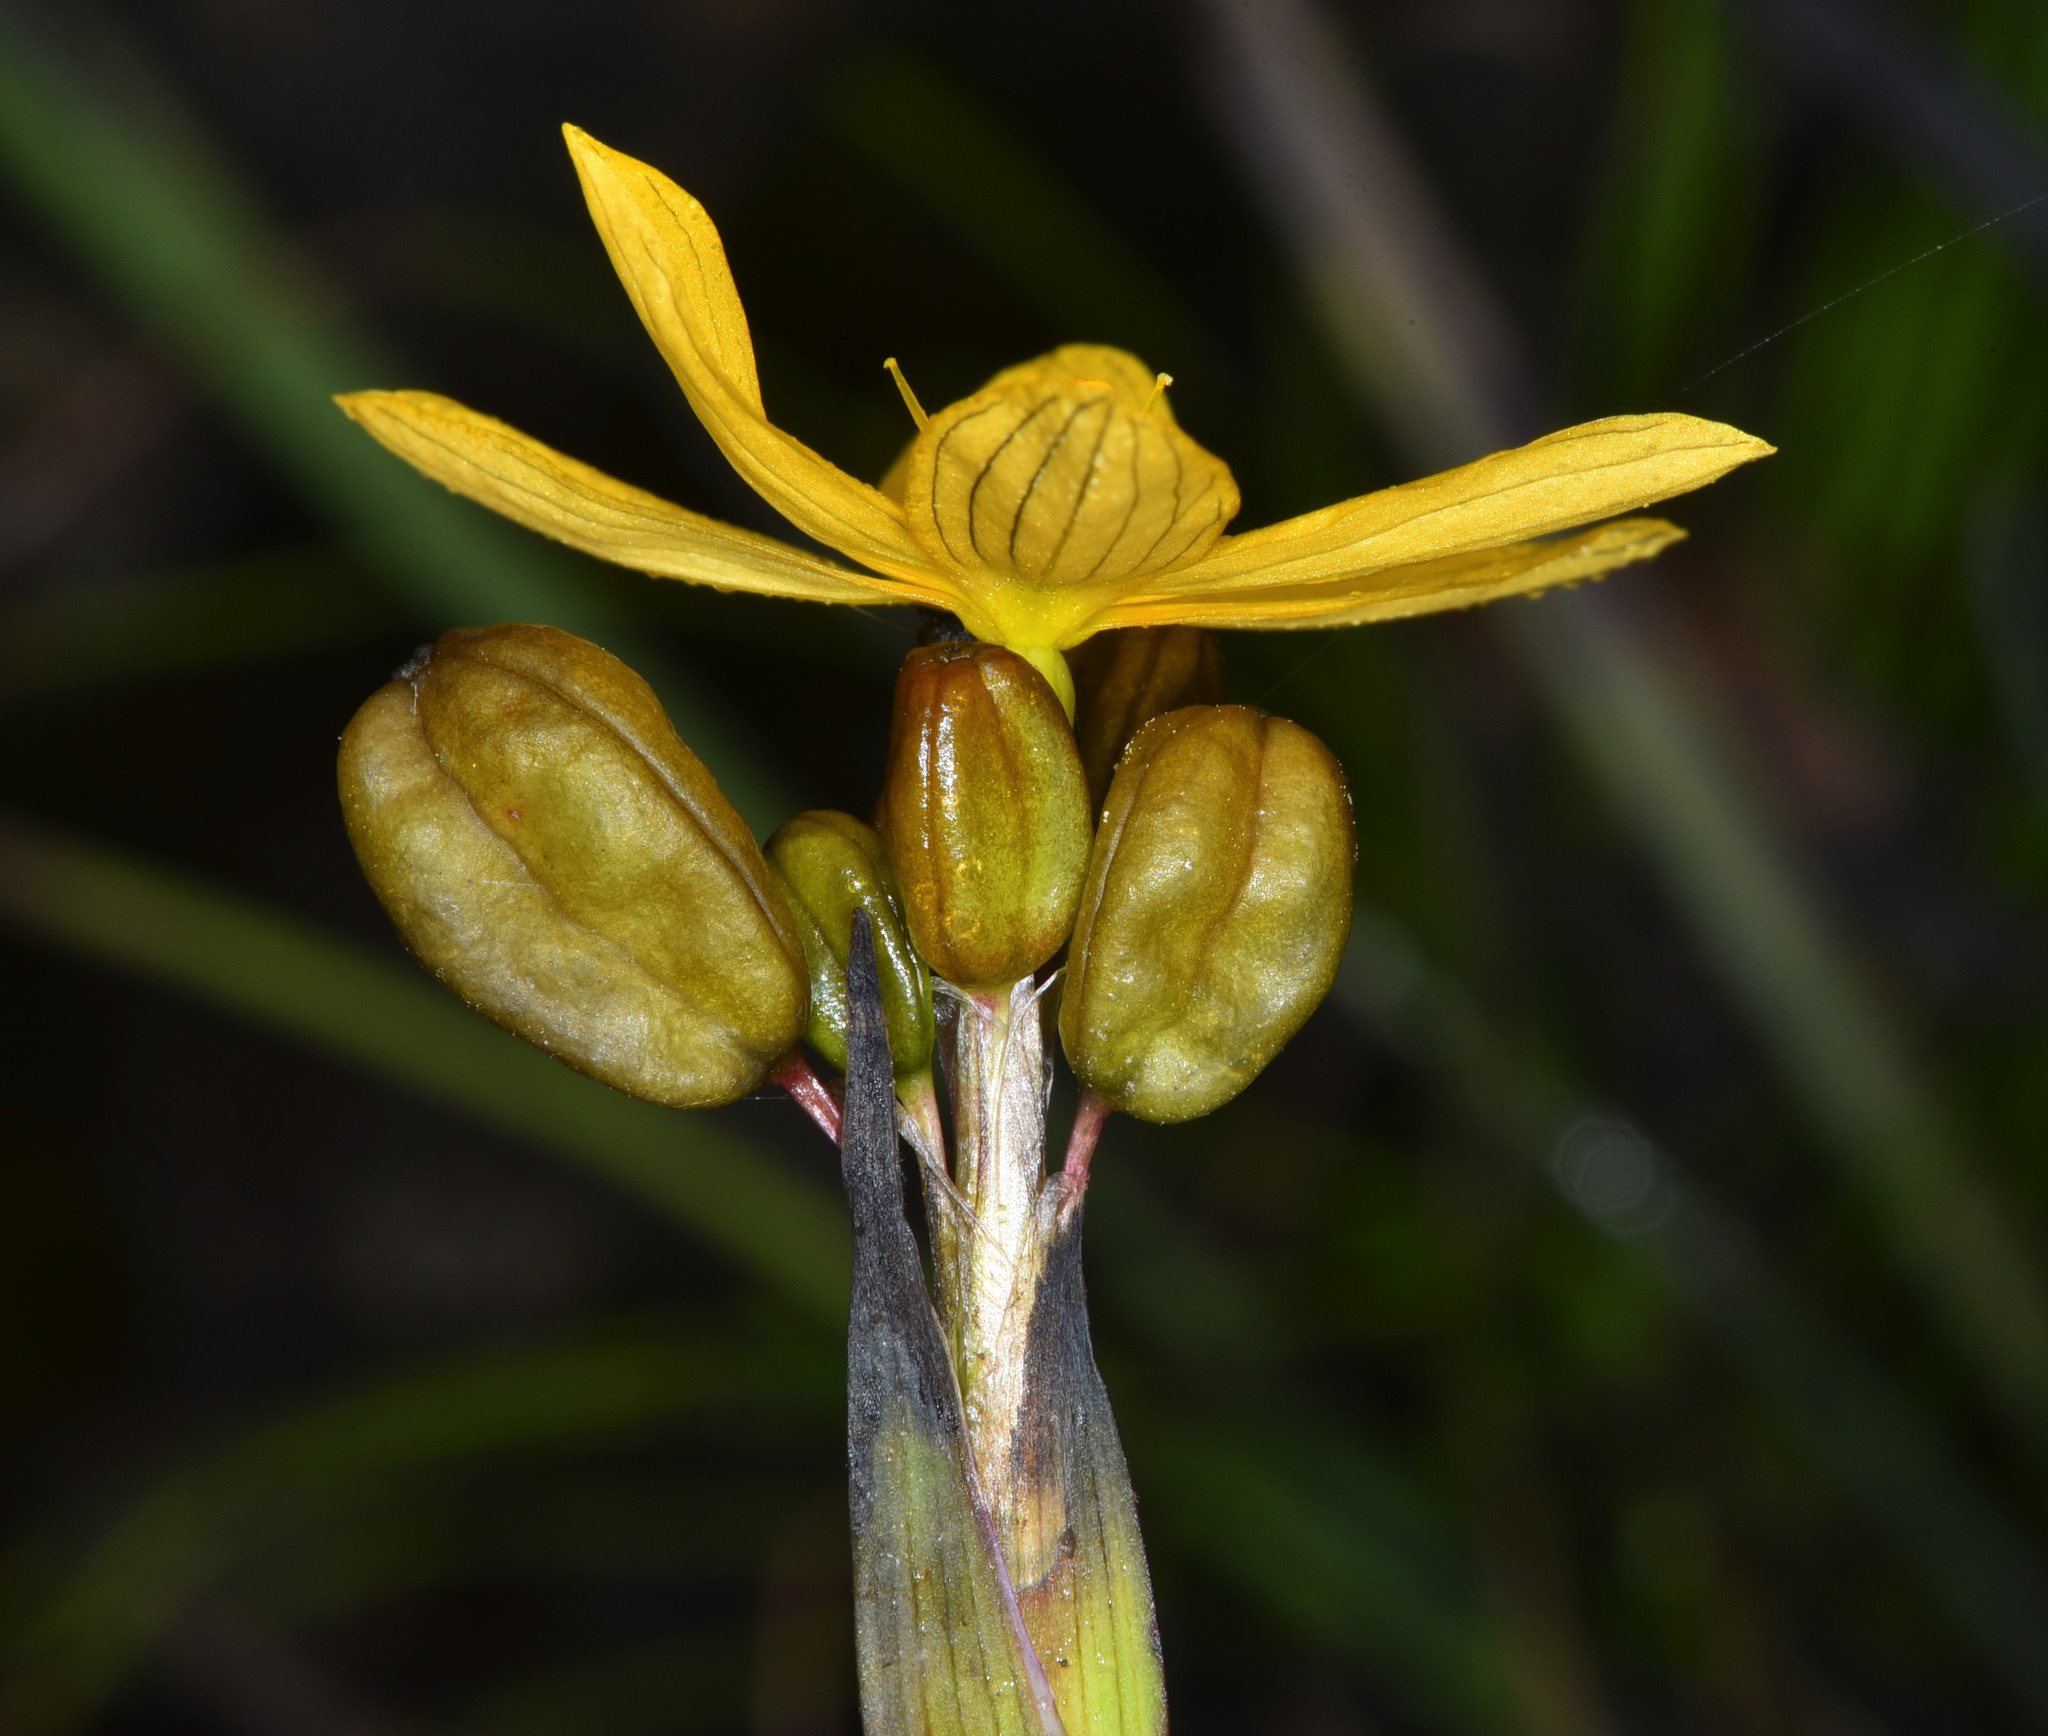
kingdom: Plantae
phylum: Tracheophyta
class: Liliopsida
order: Asparagales
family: Iridaceae
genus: Sisyrinchium
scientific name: Sisyrinchium californicum
